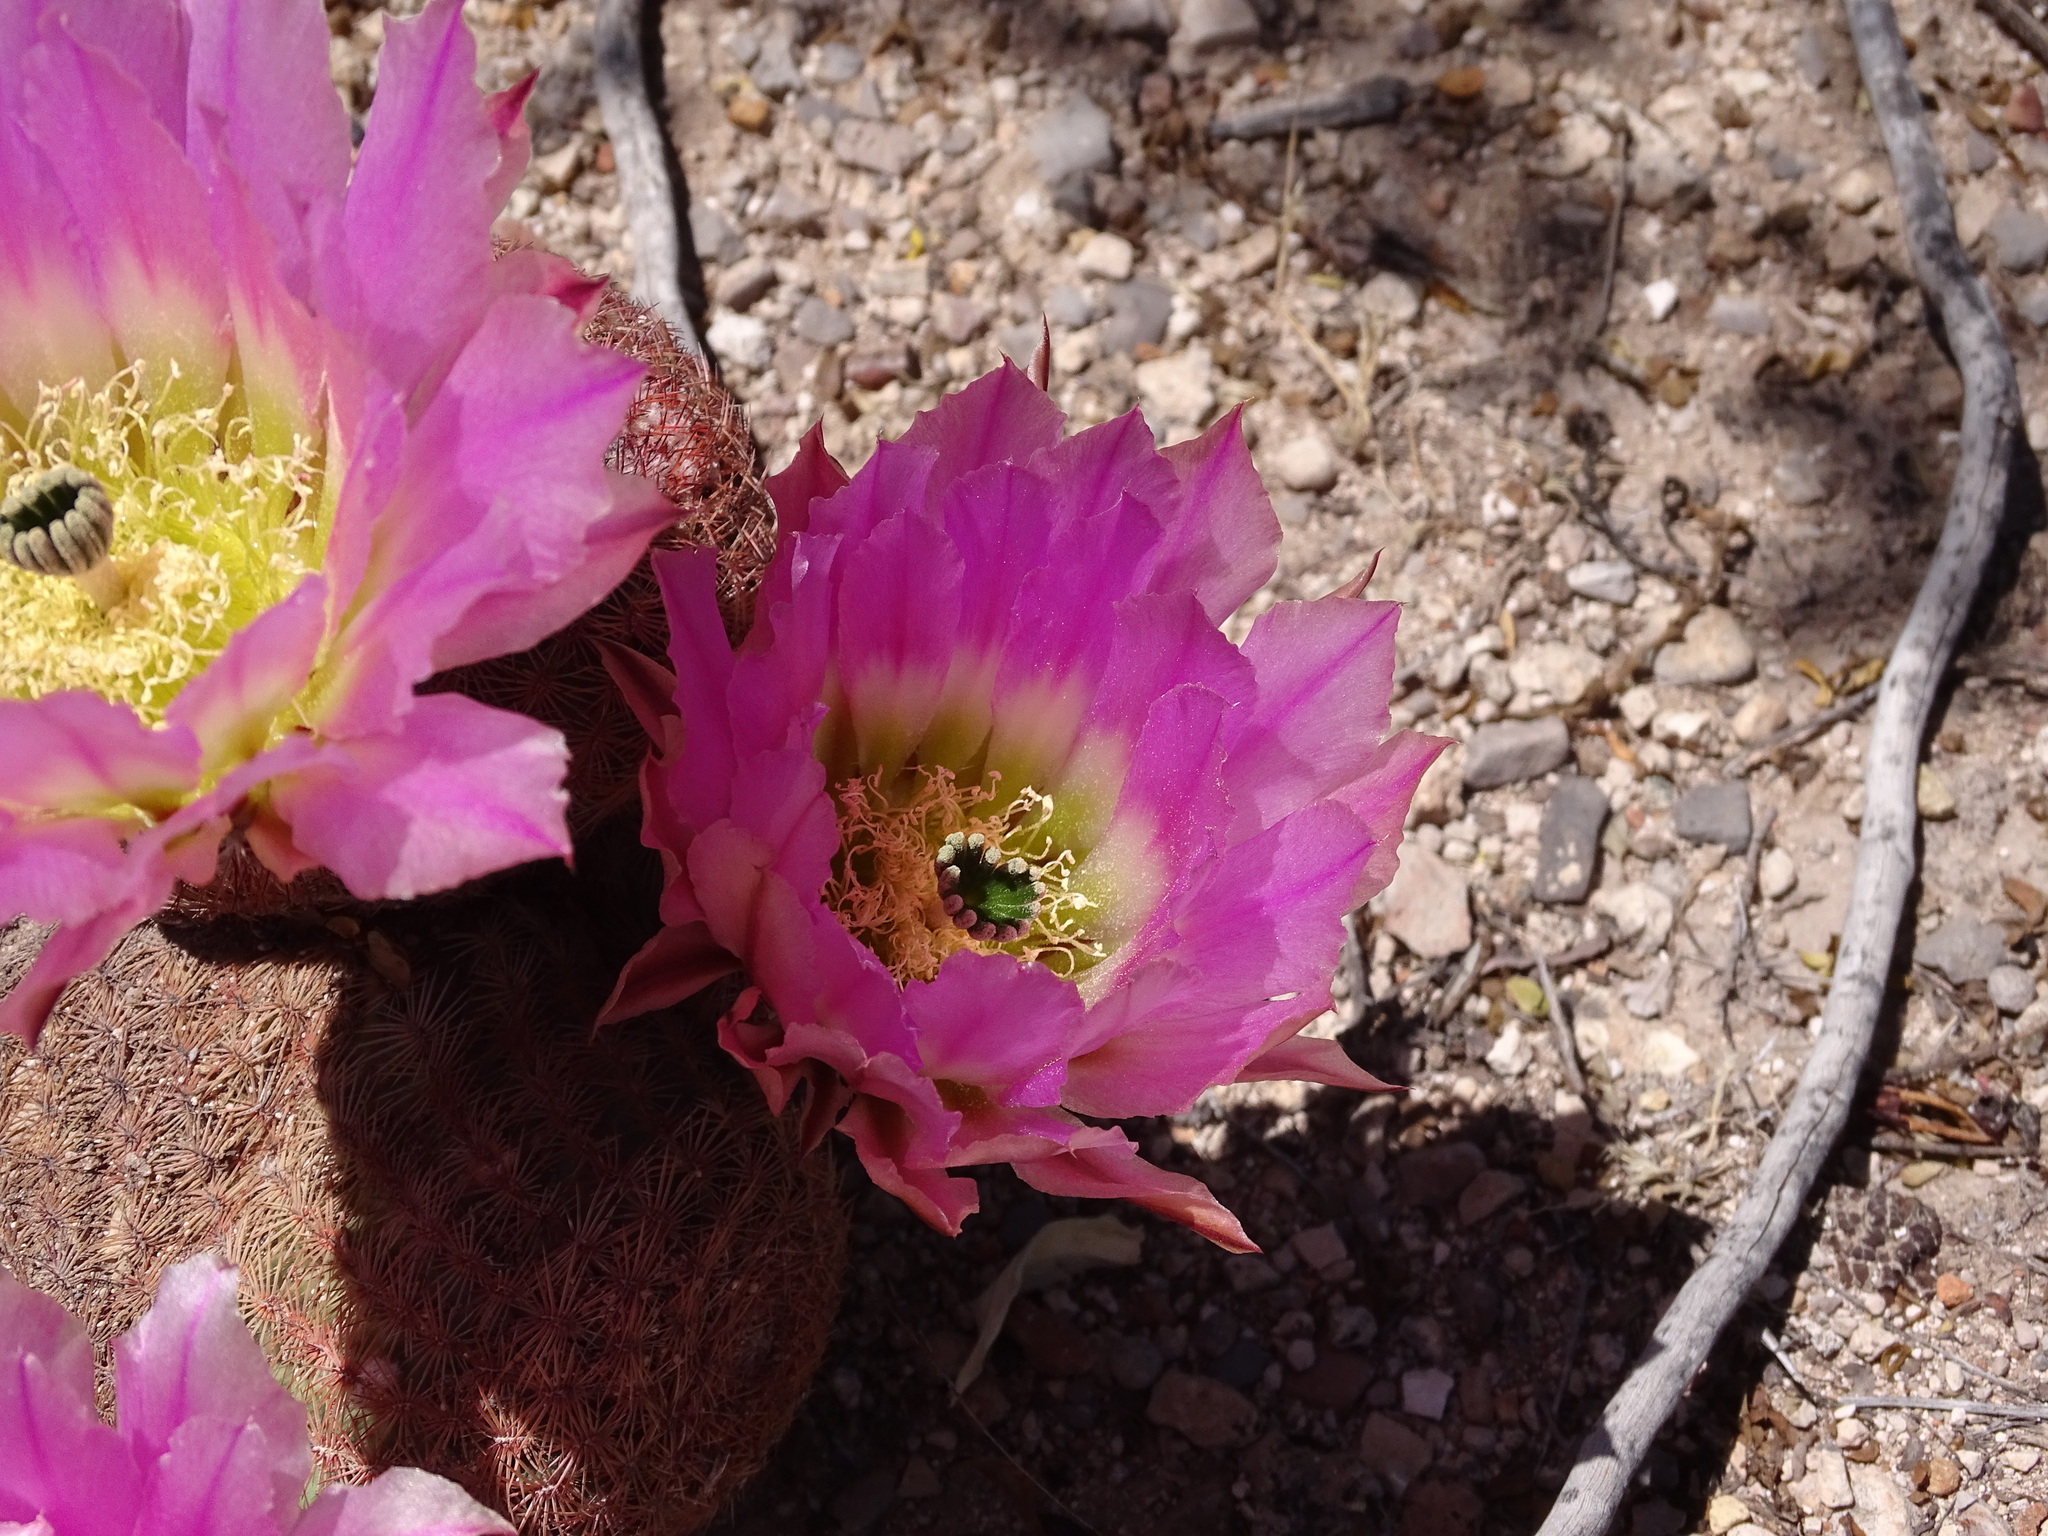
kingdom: Plantae
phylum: Tracheophyta
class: Magnoliopsida
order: Caryophyllales
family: Cactaceae
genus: Echinocereus
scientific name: Echinocereus pectinatus
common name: Rainbow cactus
